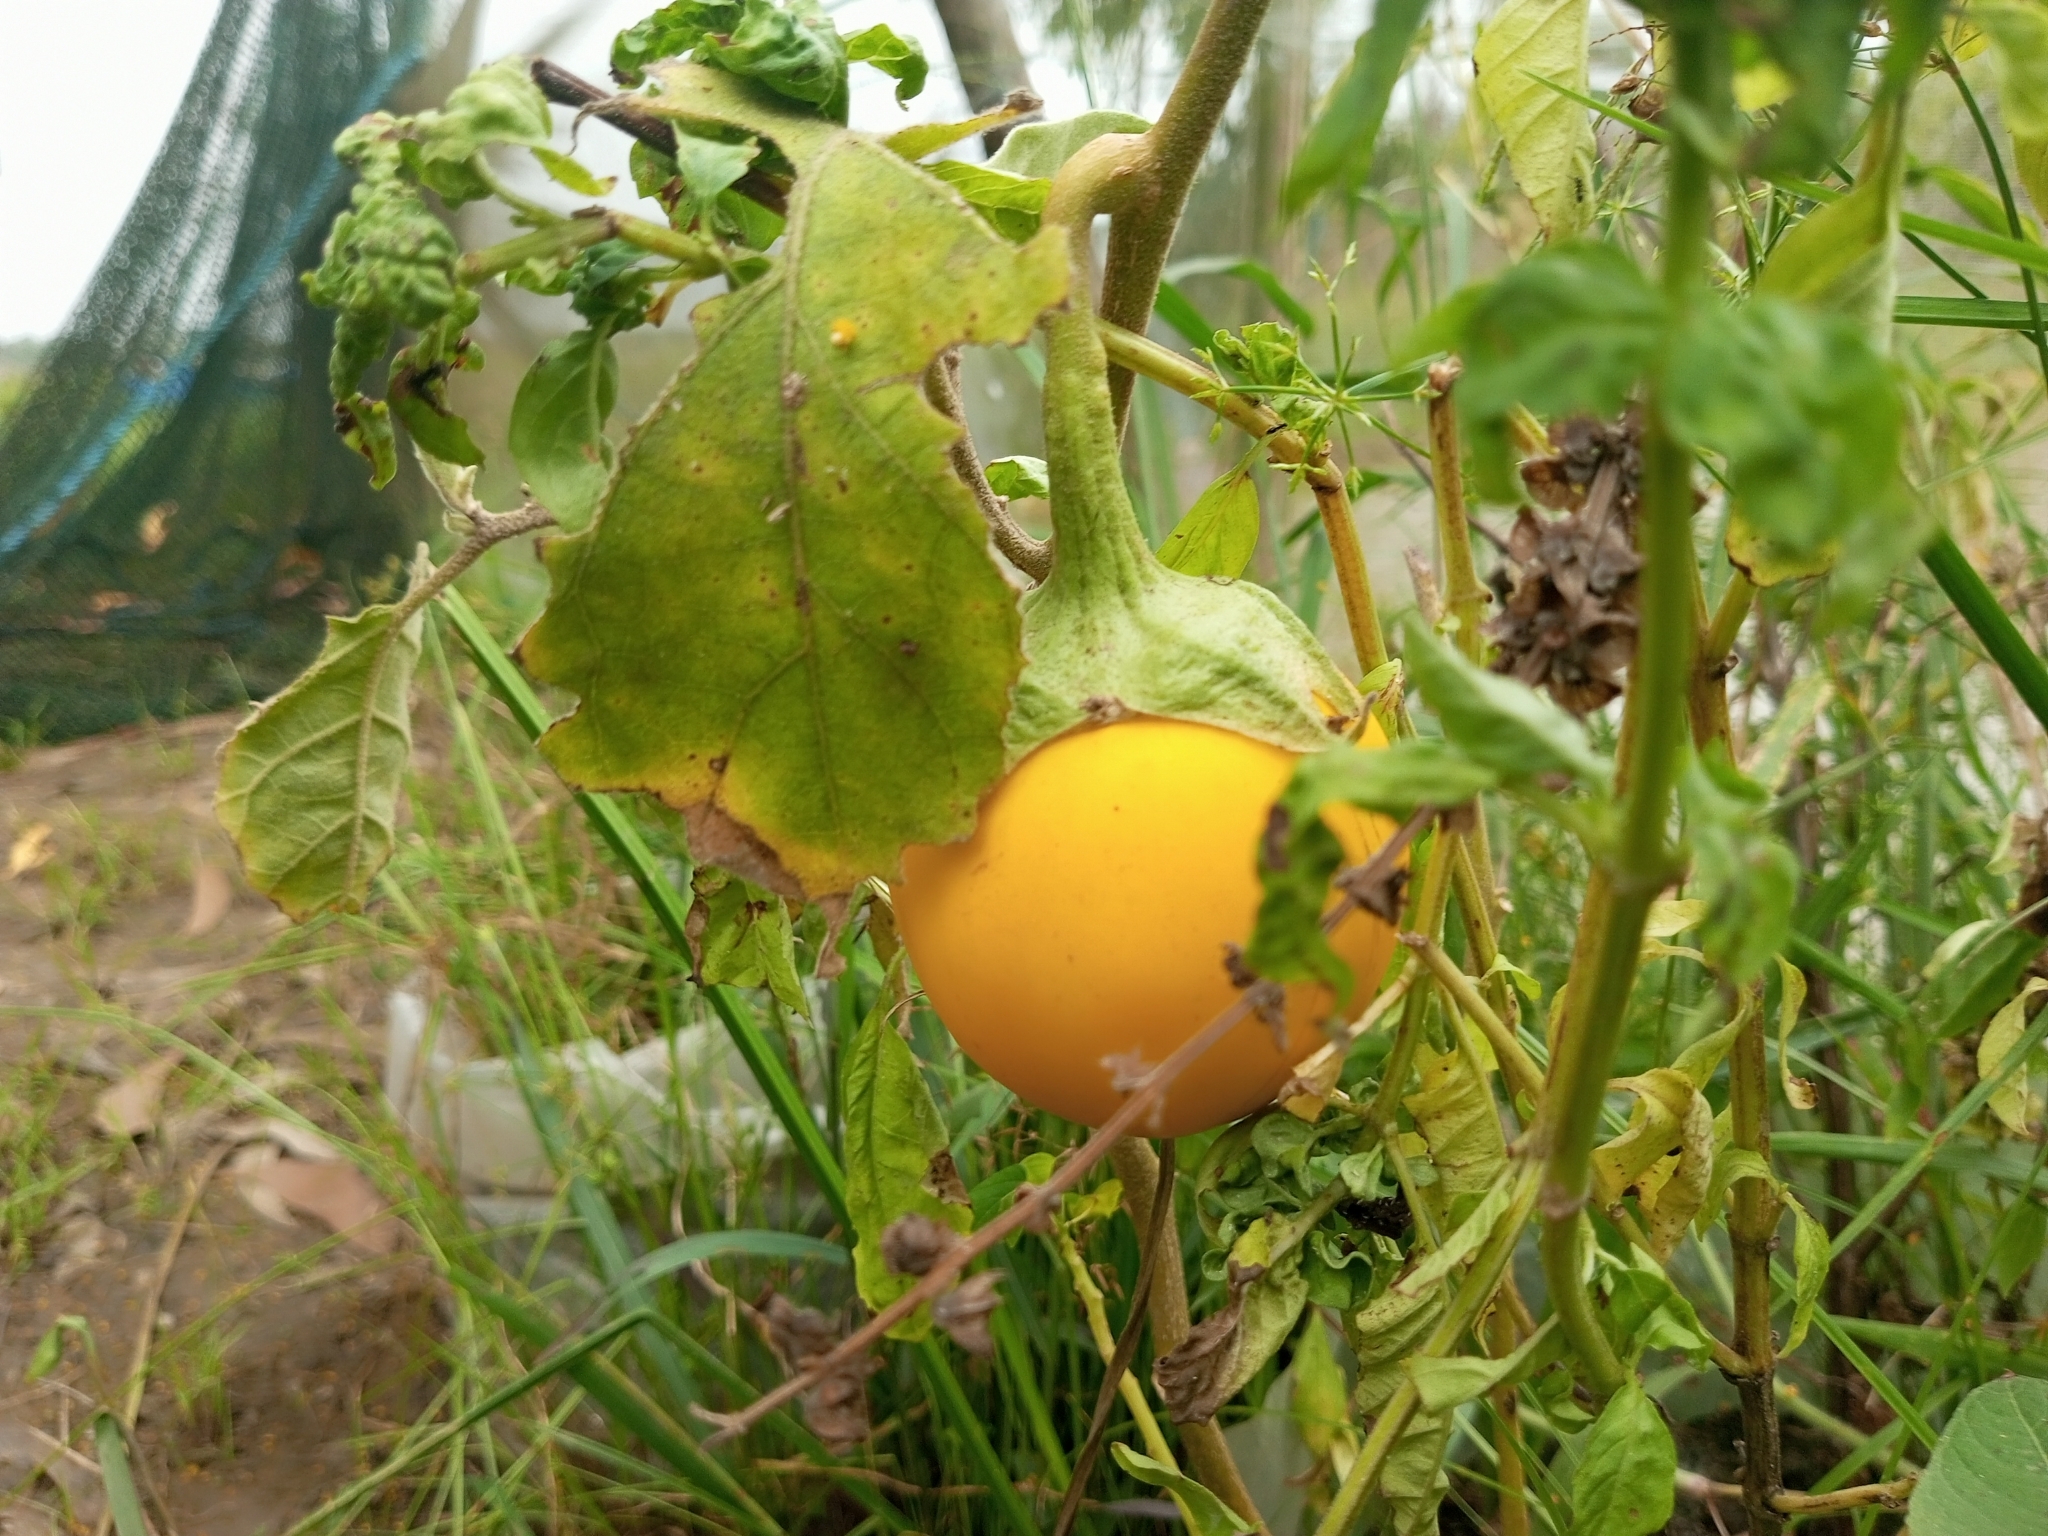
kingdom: Plantae
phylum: Tracheophyta
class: Magnoliopsida
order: Solanales
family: Solanaceae
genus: Solanum
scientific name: Solanum melongena
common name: Eggplant
